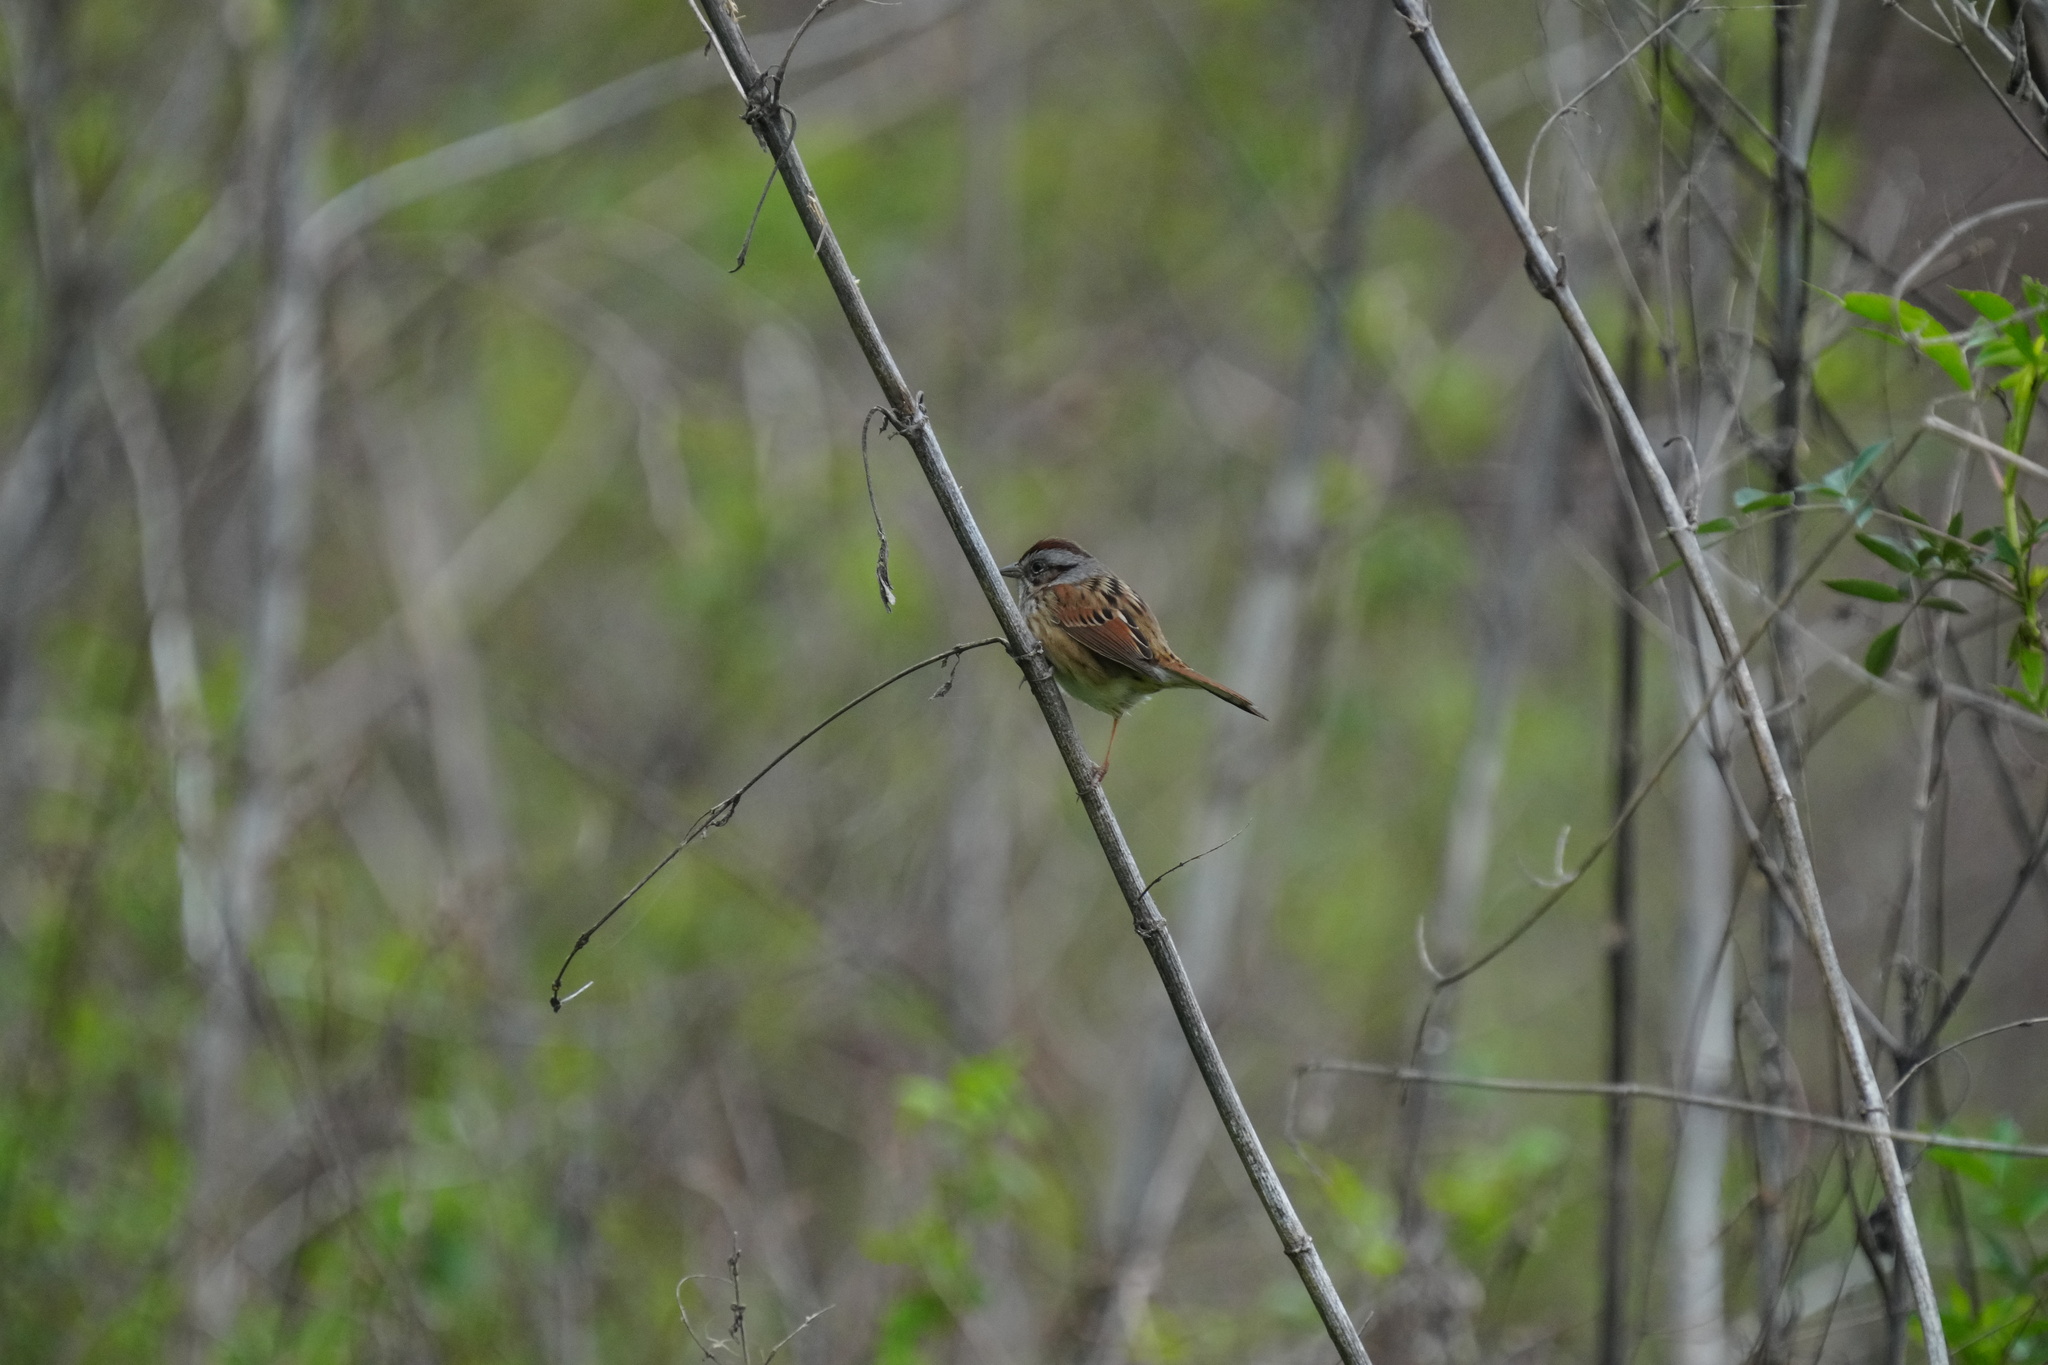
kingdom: Animalia
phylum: Chordata
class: Aves
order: Passeriformes
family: Passerellidae
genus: Melospiza
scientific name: Melospiza georgiana
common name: Swamp sparrow
